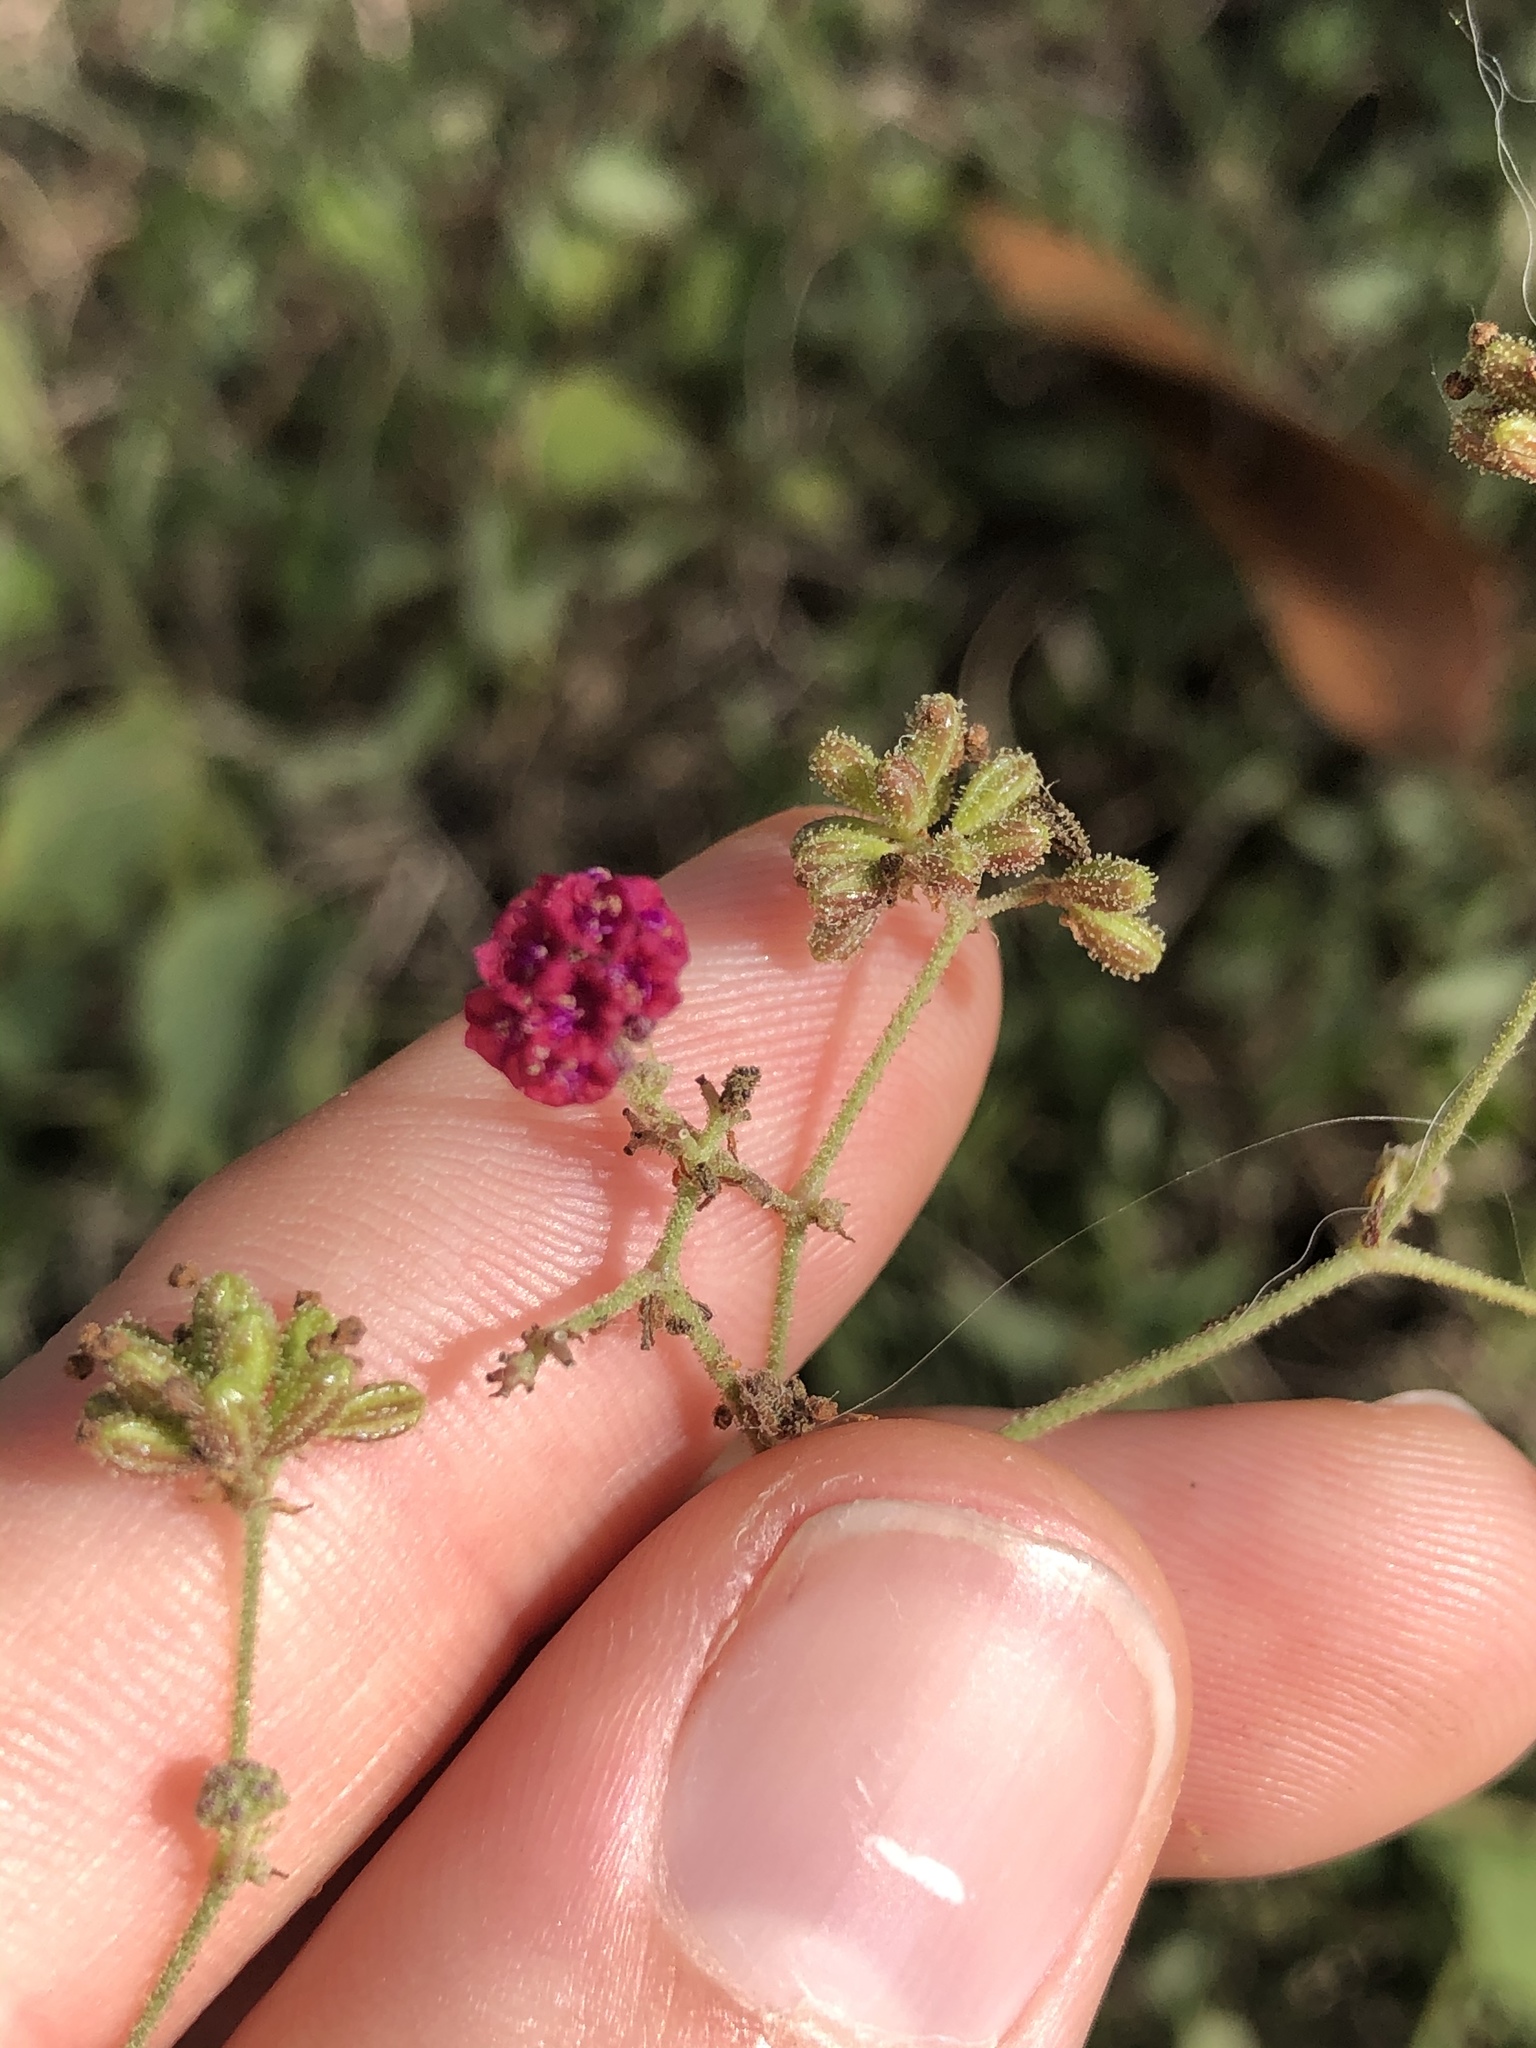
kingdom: Plantae
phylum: Tracheophyta
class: Magnoliopsida
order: Caryophyllales
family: Nyctaginaceae
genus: Boerhavia
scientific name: Boerhavia coccinea
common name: Scarlet spiderling
